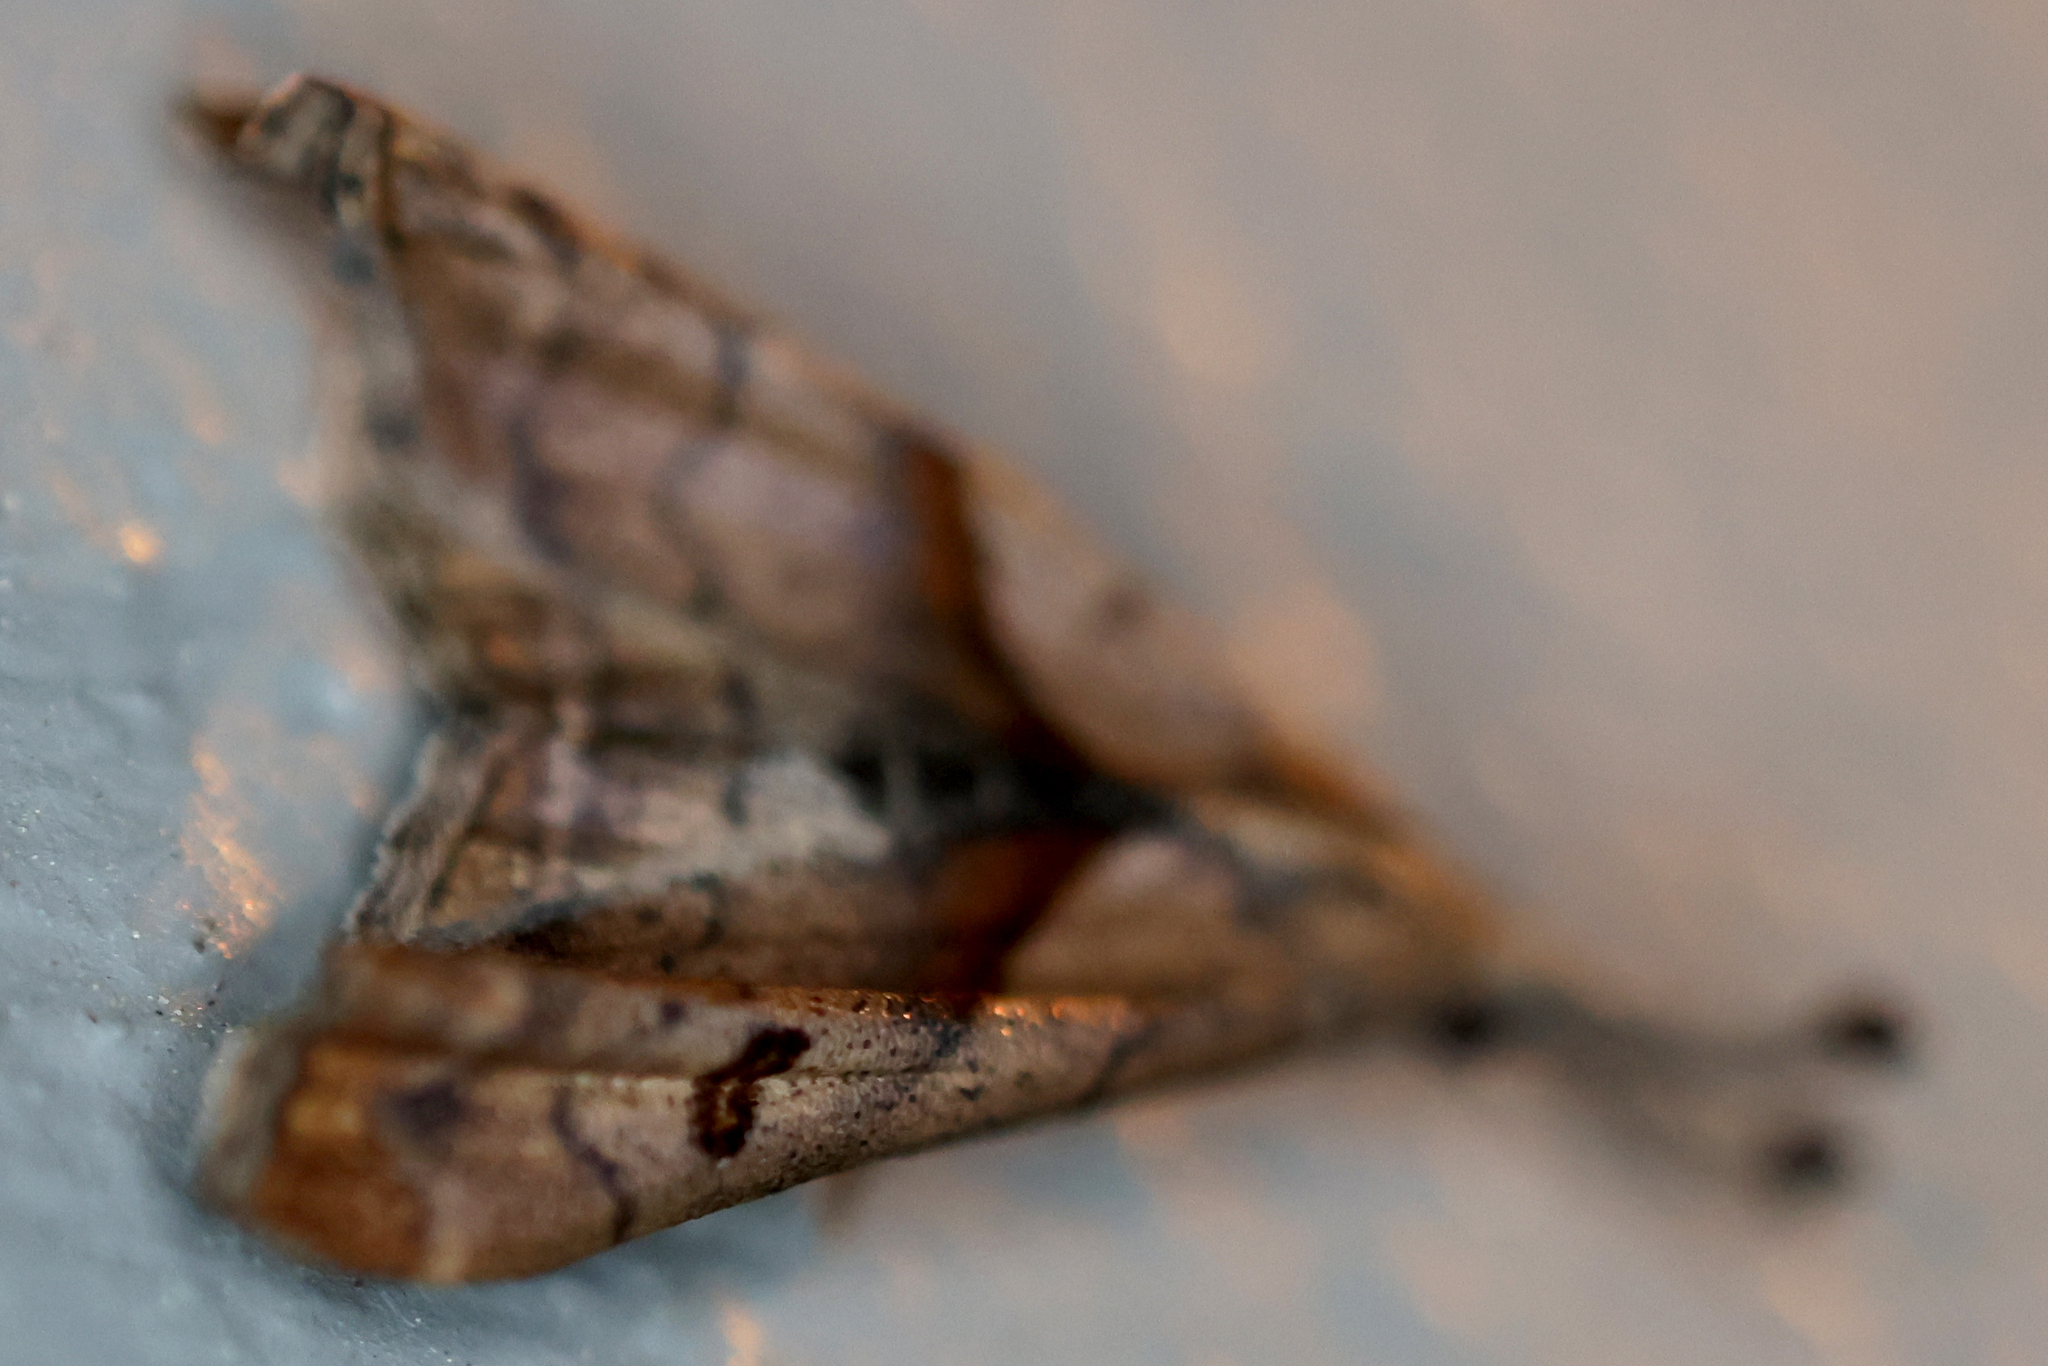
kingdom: Animalia
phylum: Arthropoda
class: Insecta
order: Lepidoptera
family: Erebidae
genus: Palthis
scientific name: Palthis angulalis
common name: Dark-spotted palthis moth
